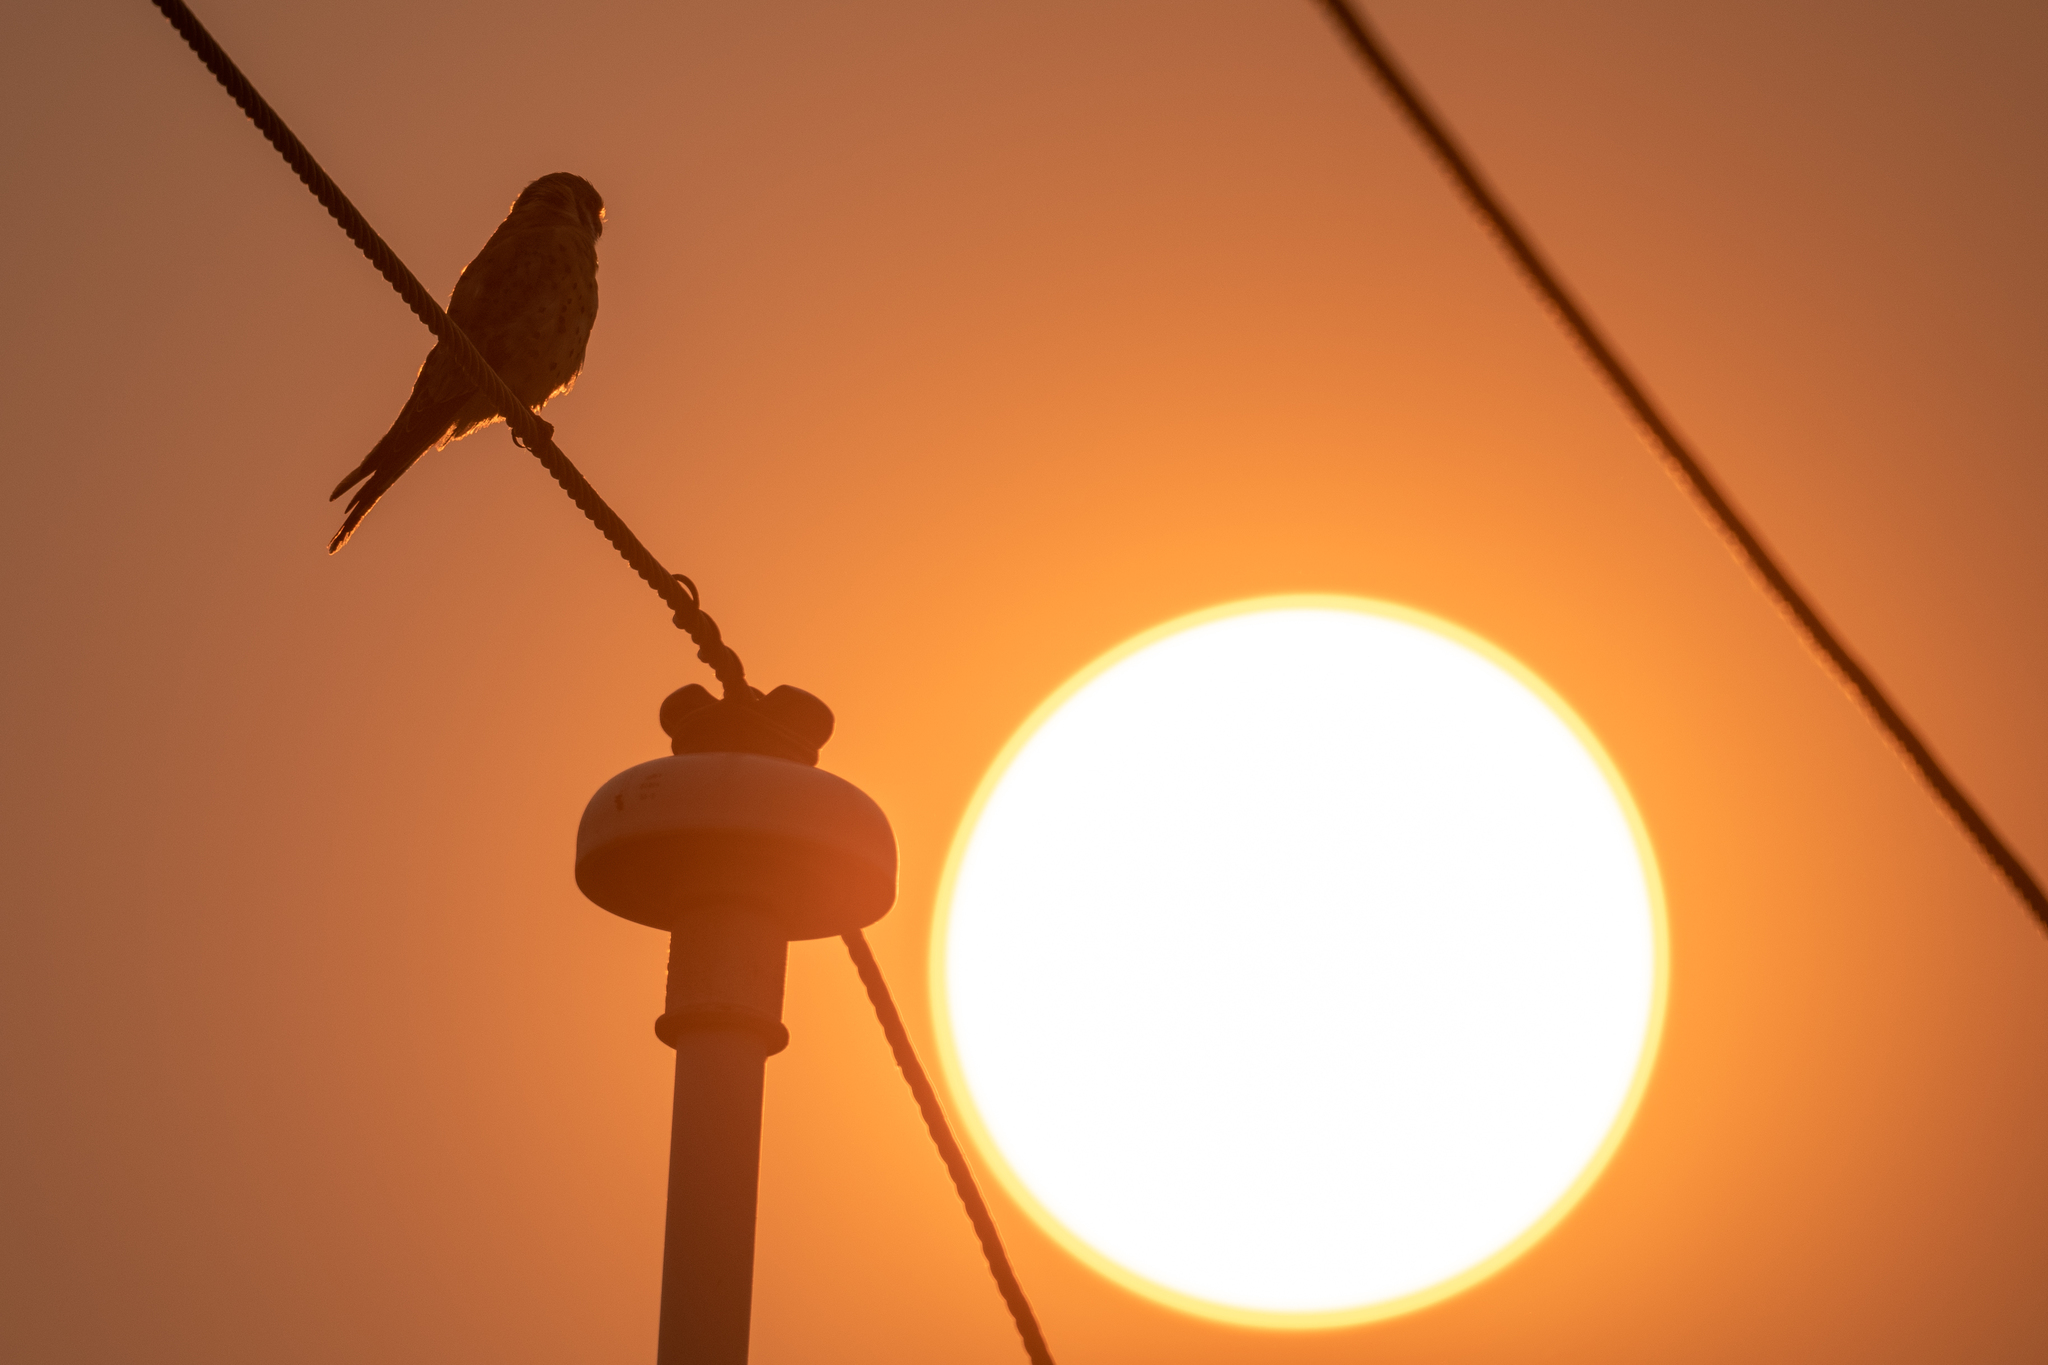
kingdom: Animalia
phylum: Chordata
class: Aves
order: Falconiformes
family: Falconidae
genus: Falco
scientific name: Falco sparverius
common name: American kestrel
